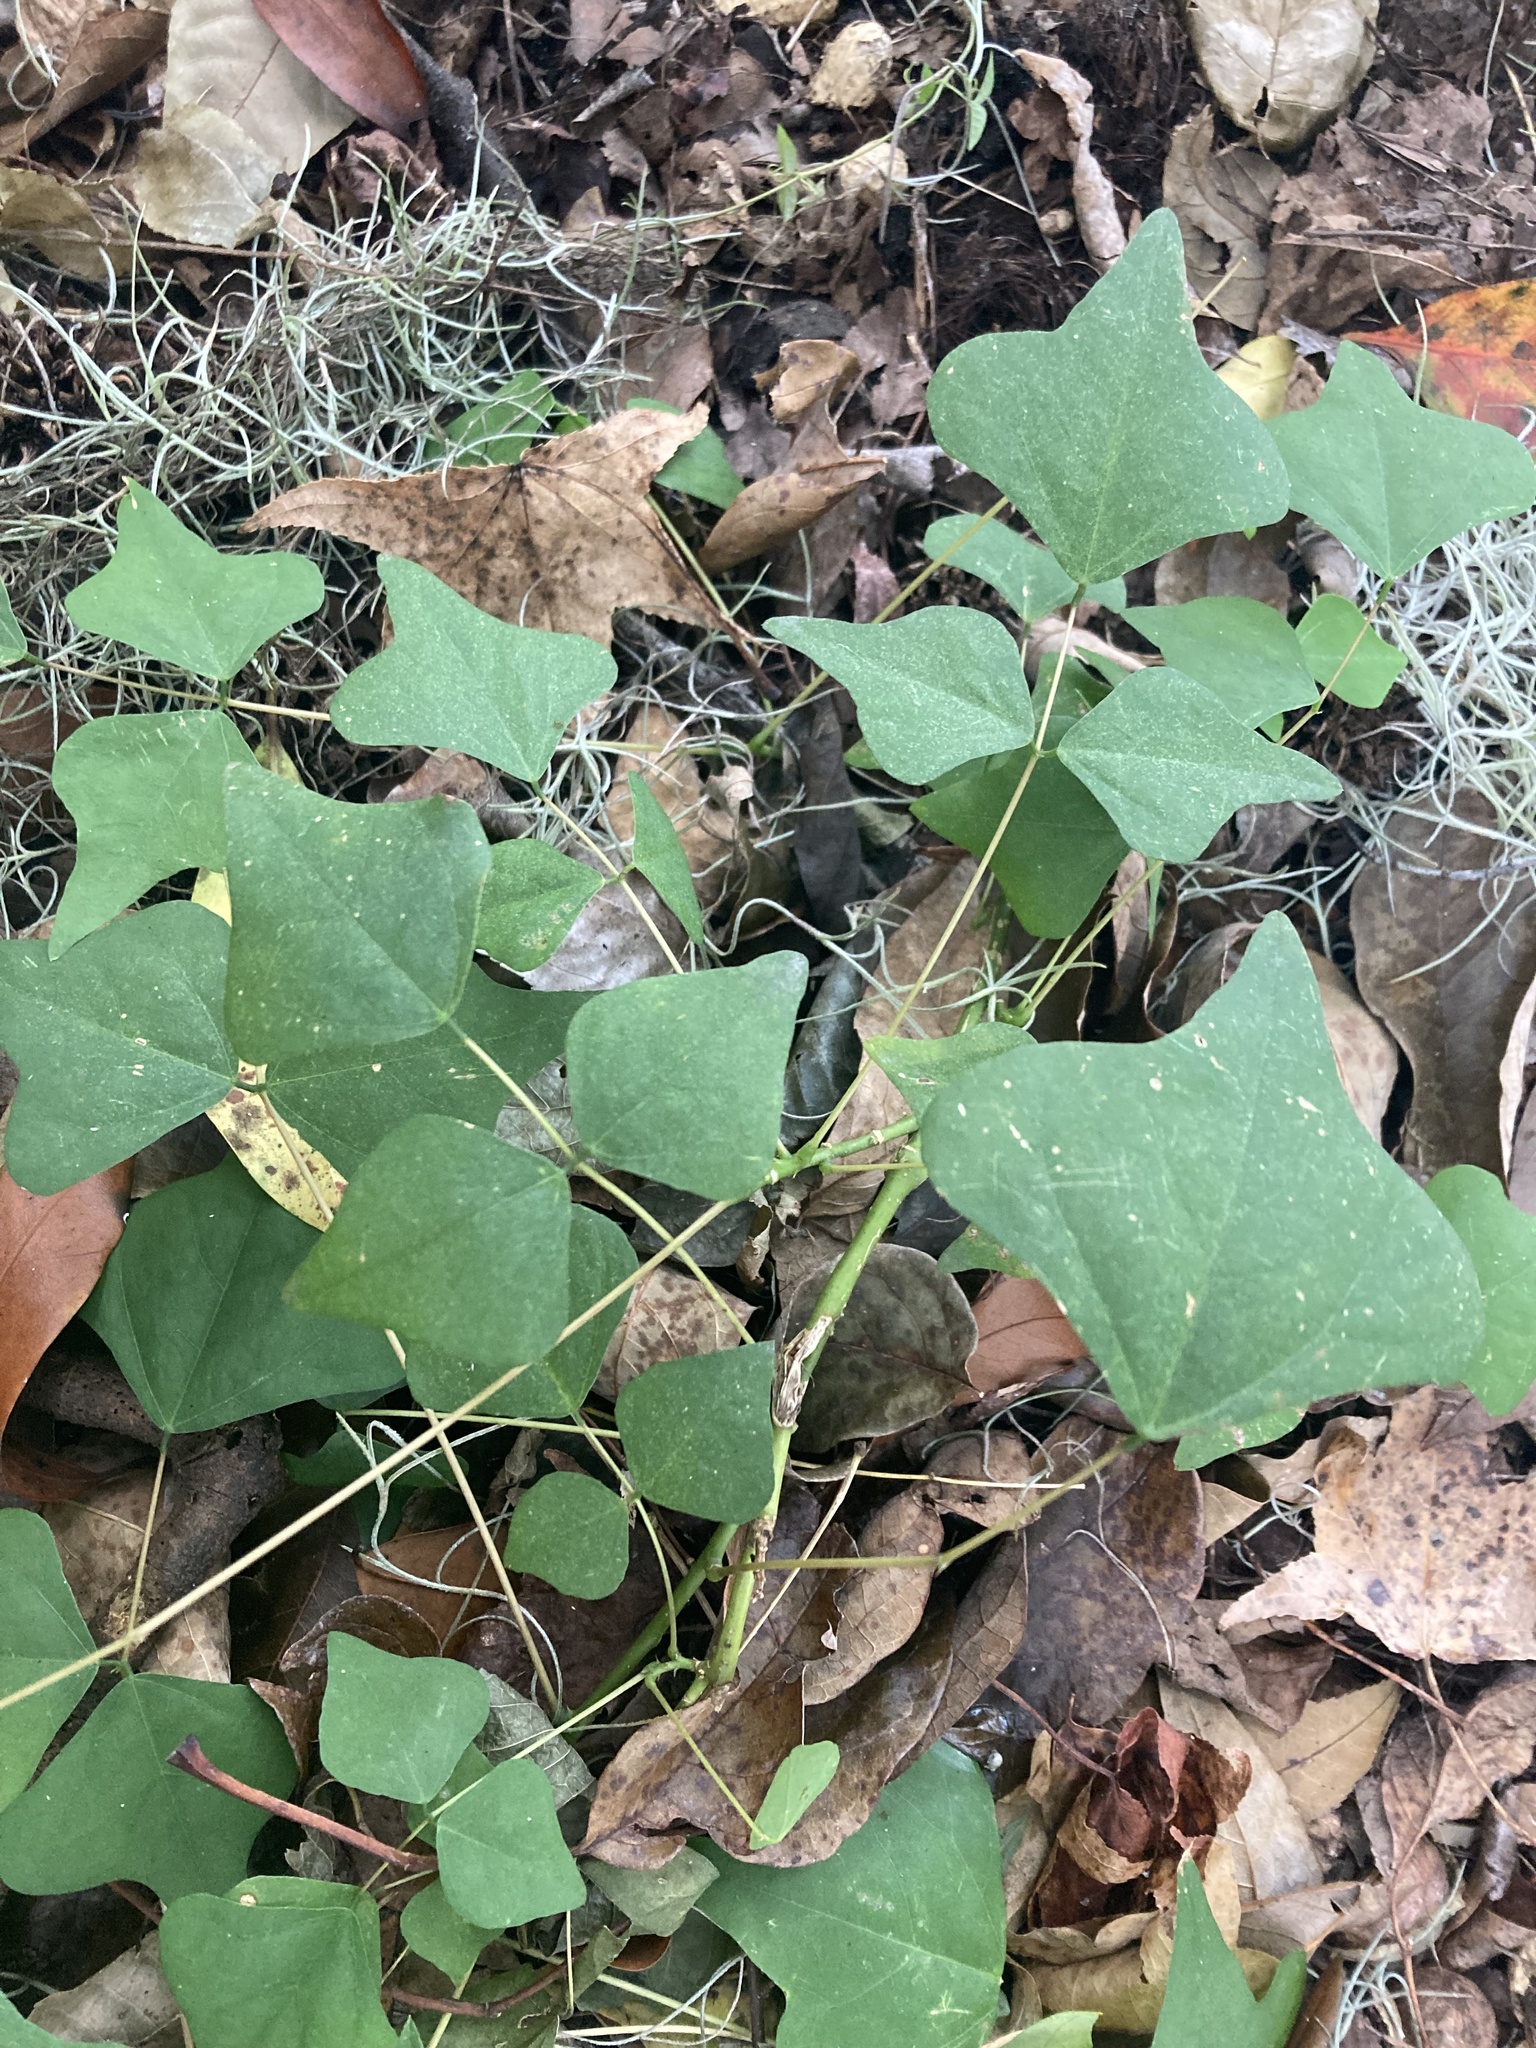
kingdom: Plantae
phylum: Tracheophyta
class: Magnoliopsida
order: Fabales
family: Fabaceae
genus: Erythrina
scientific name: Erythrina herbacea
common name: Coral-bean
